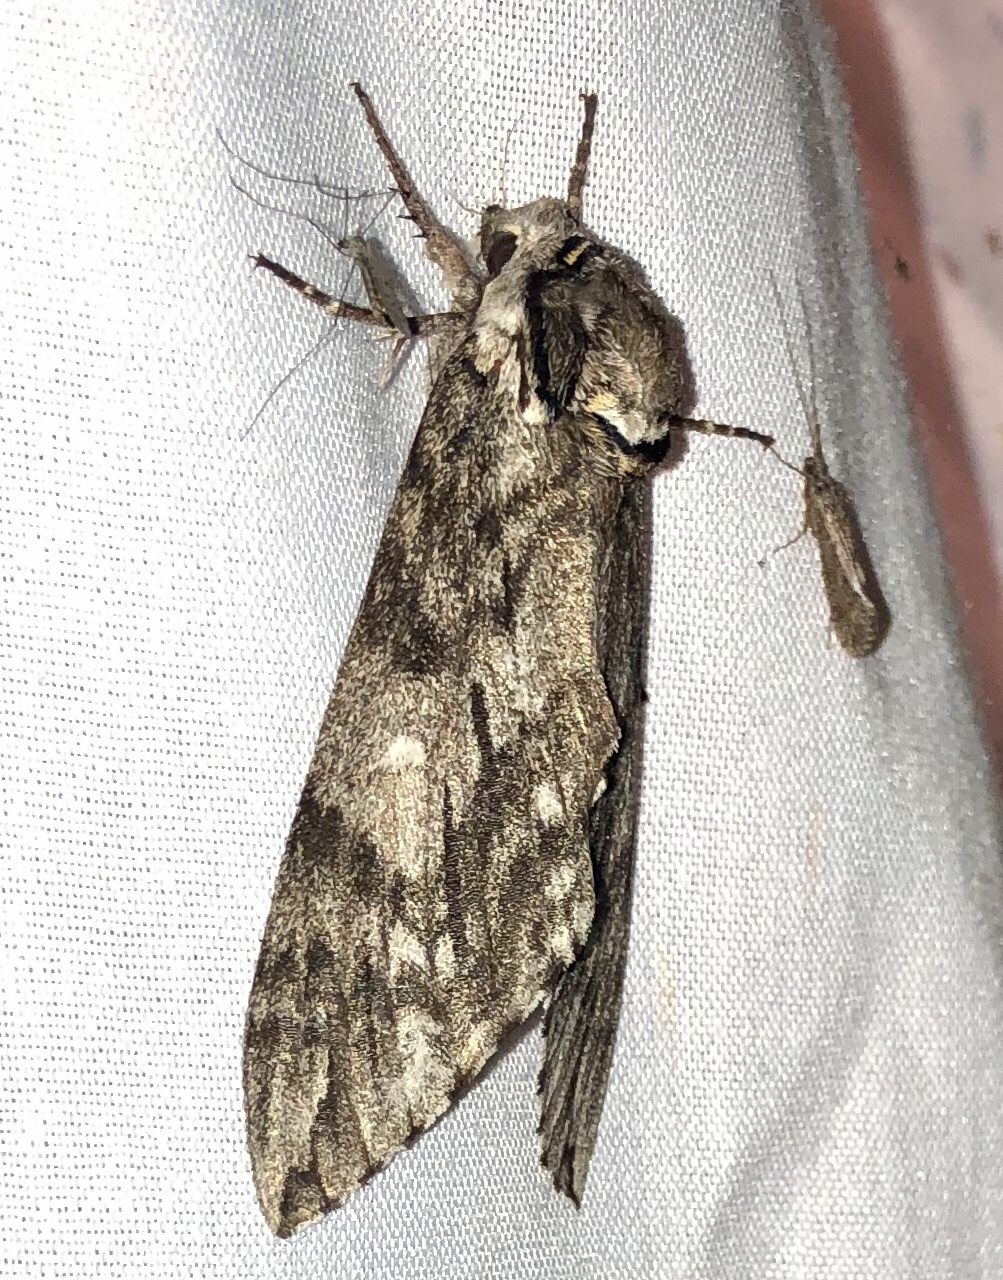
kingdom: Animalia
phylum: Arthropoda
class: Insecta
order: Lepidoptera
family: Sphingidae
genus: Ceratomia
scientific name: Ceratomia undulosa
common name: Waved sphinx
